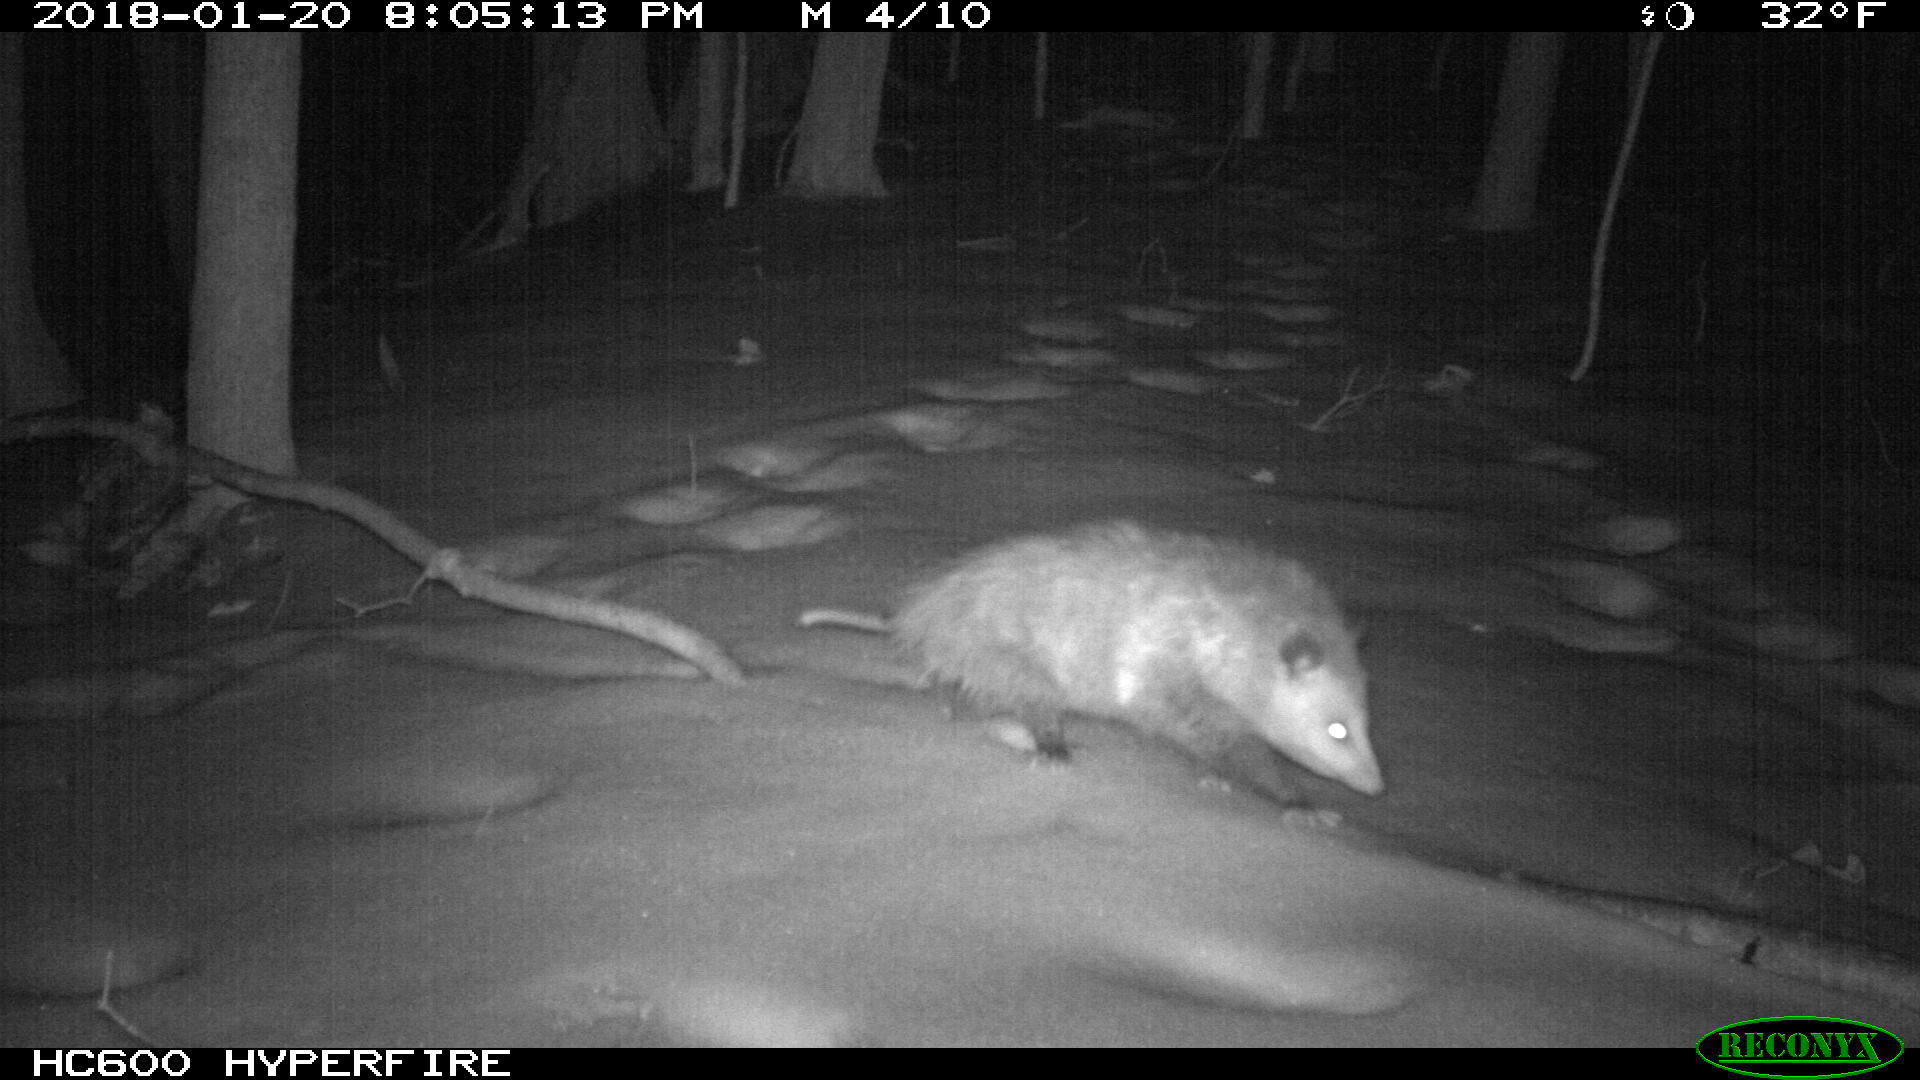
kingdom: Animalia
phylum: Chordata
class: Mammalia
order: Didelphimorphia
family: Didelphidae
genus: Didelphis
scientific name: Didelphis virginiana
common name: Virginia opossum
